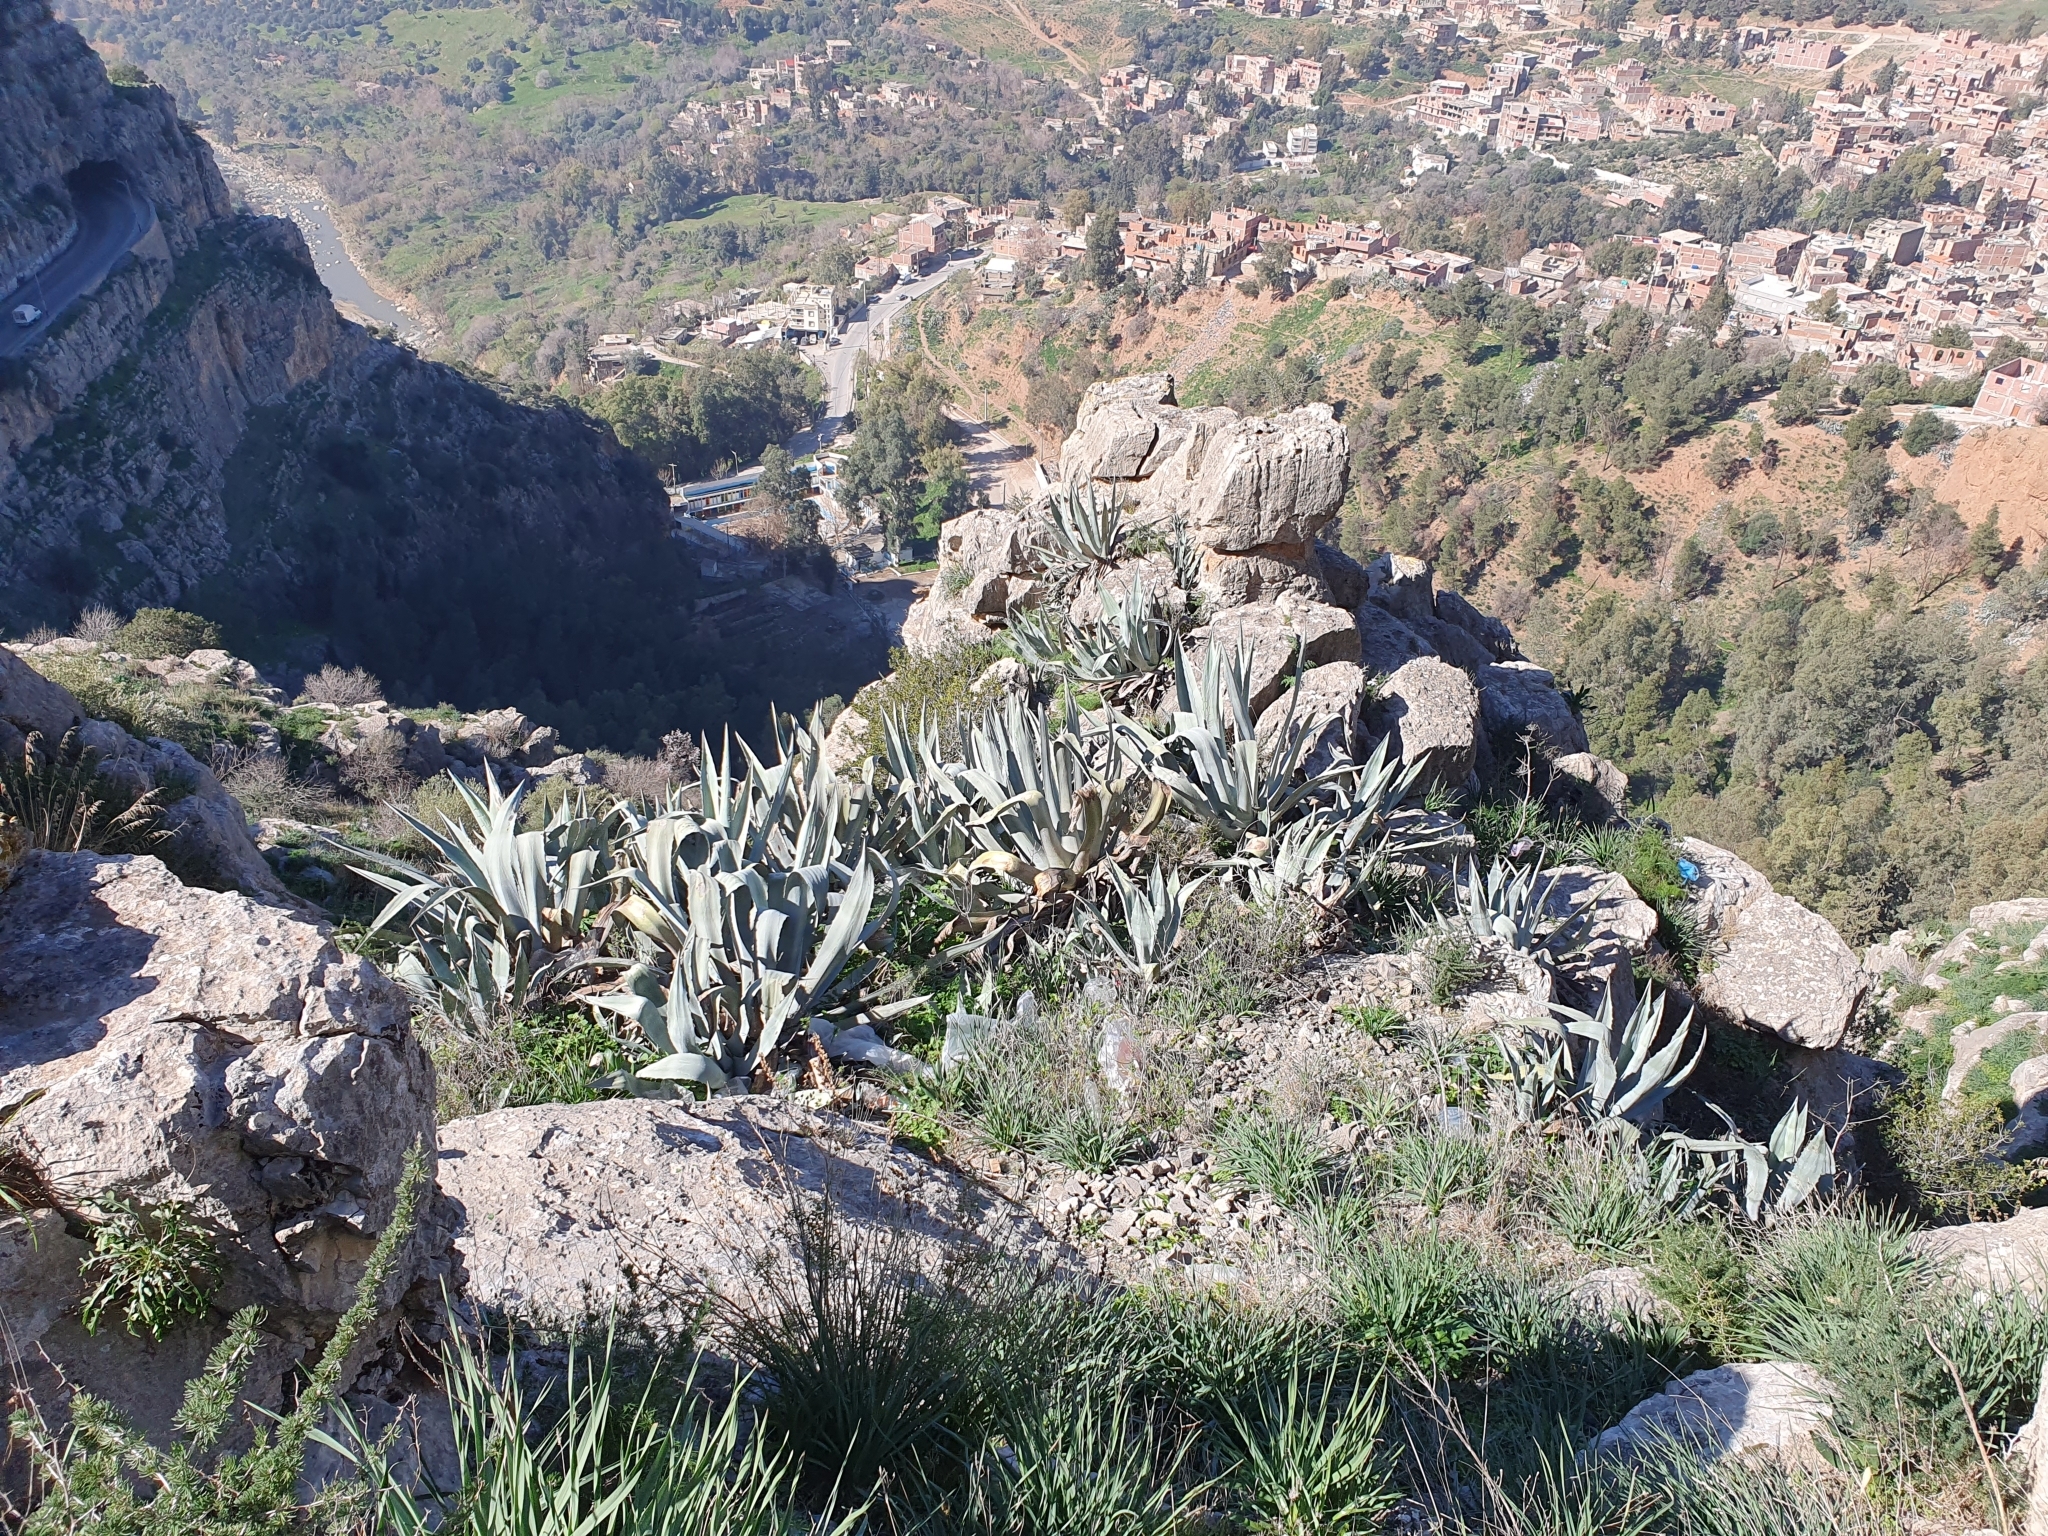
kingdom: Plantae
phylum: Tracheophyta
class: Liliopsida
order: Asparagales
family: Asparagaceae
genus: Agave
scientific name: Agave americana
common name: Centuryplant
